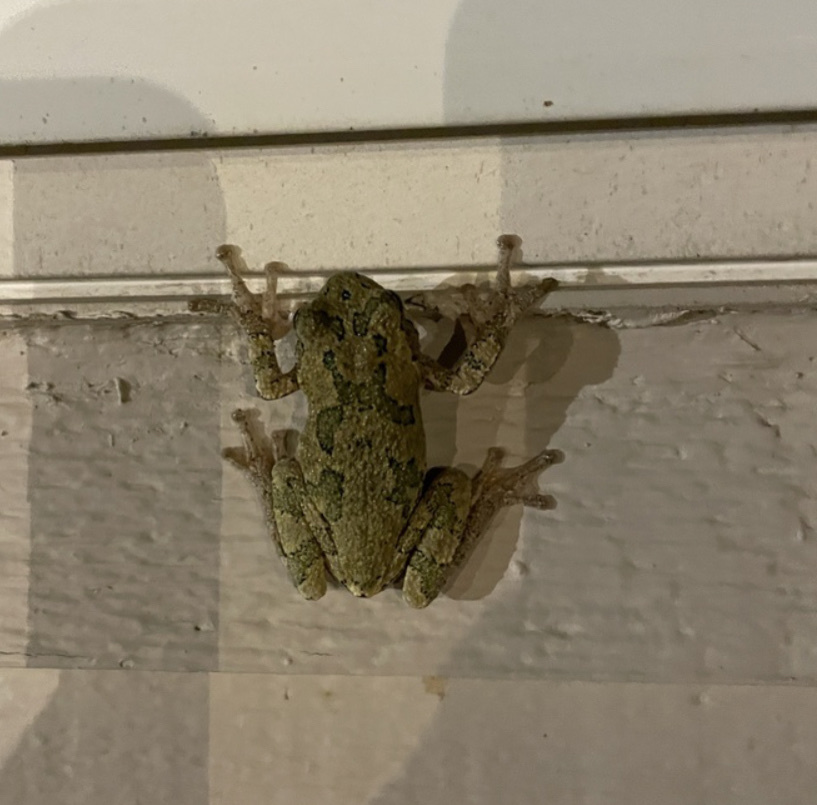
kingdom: Animalia
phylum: Chordata
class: Amphibia
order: Anura
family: Hylidae
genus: Hyla
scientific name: Hyla
